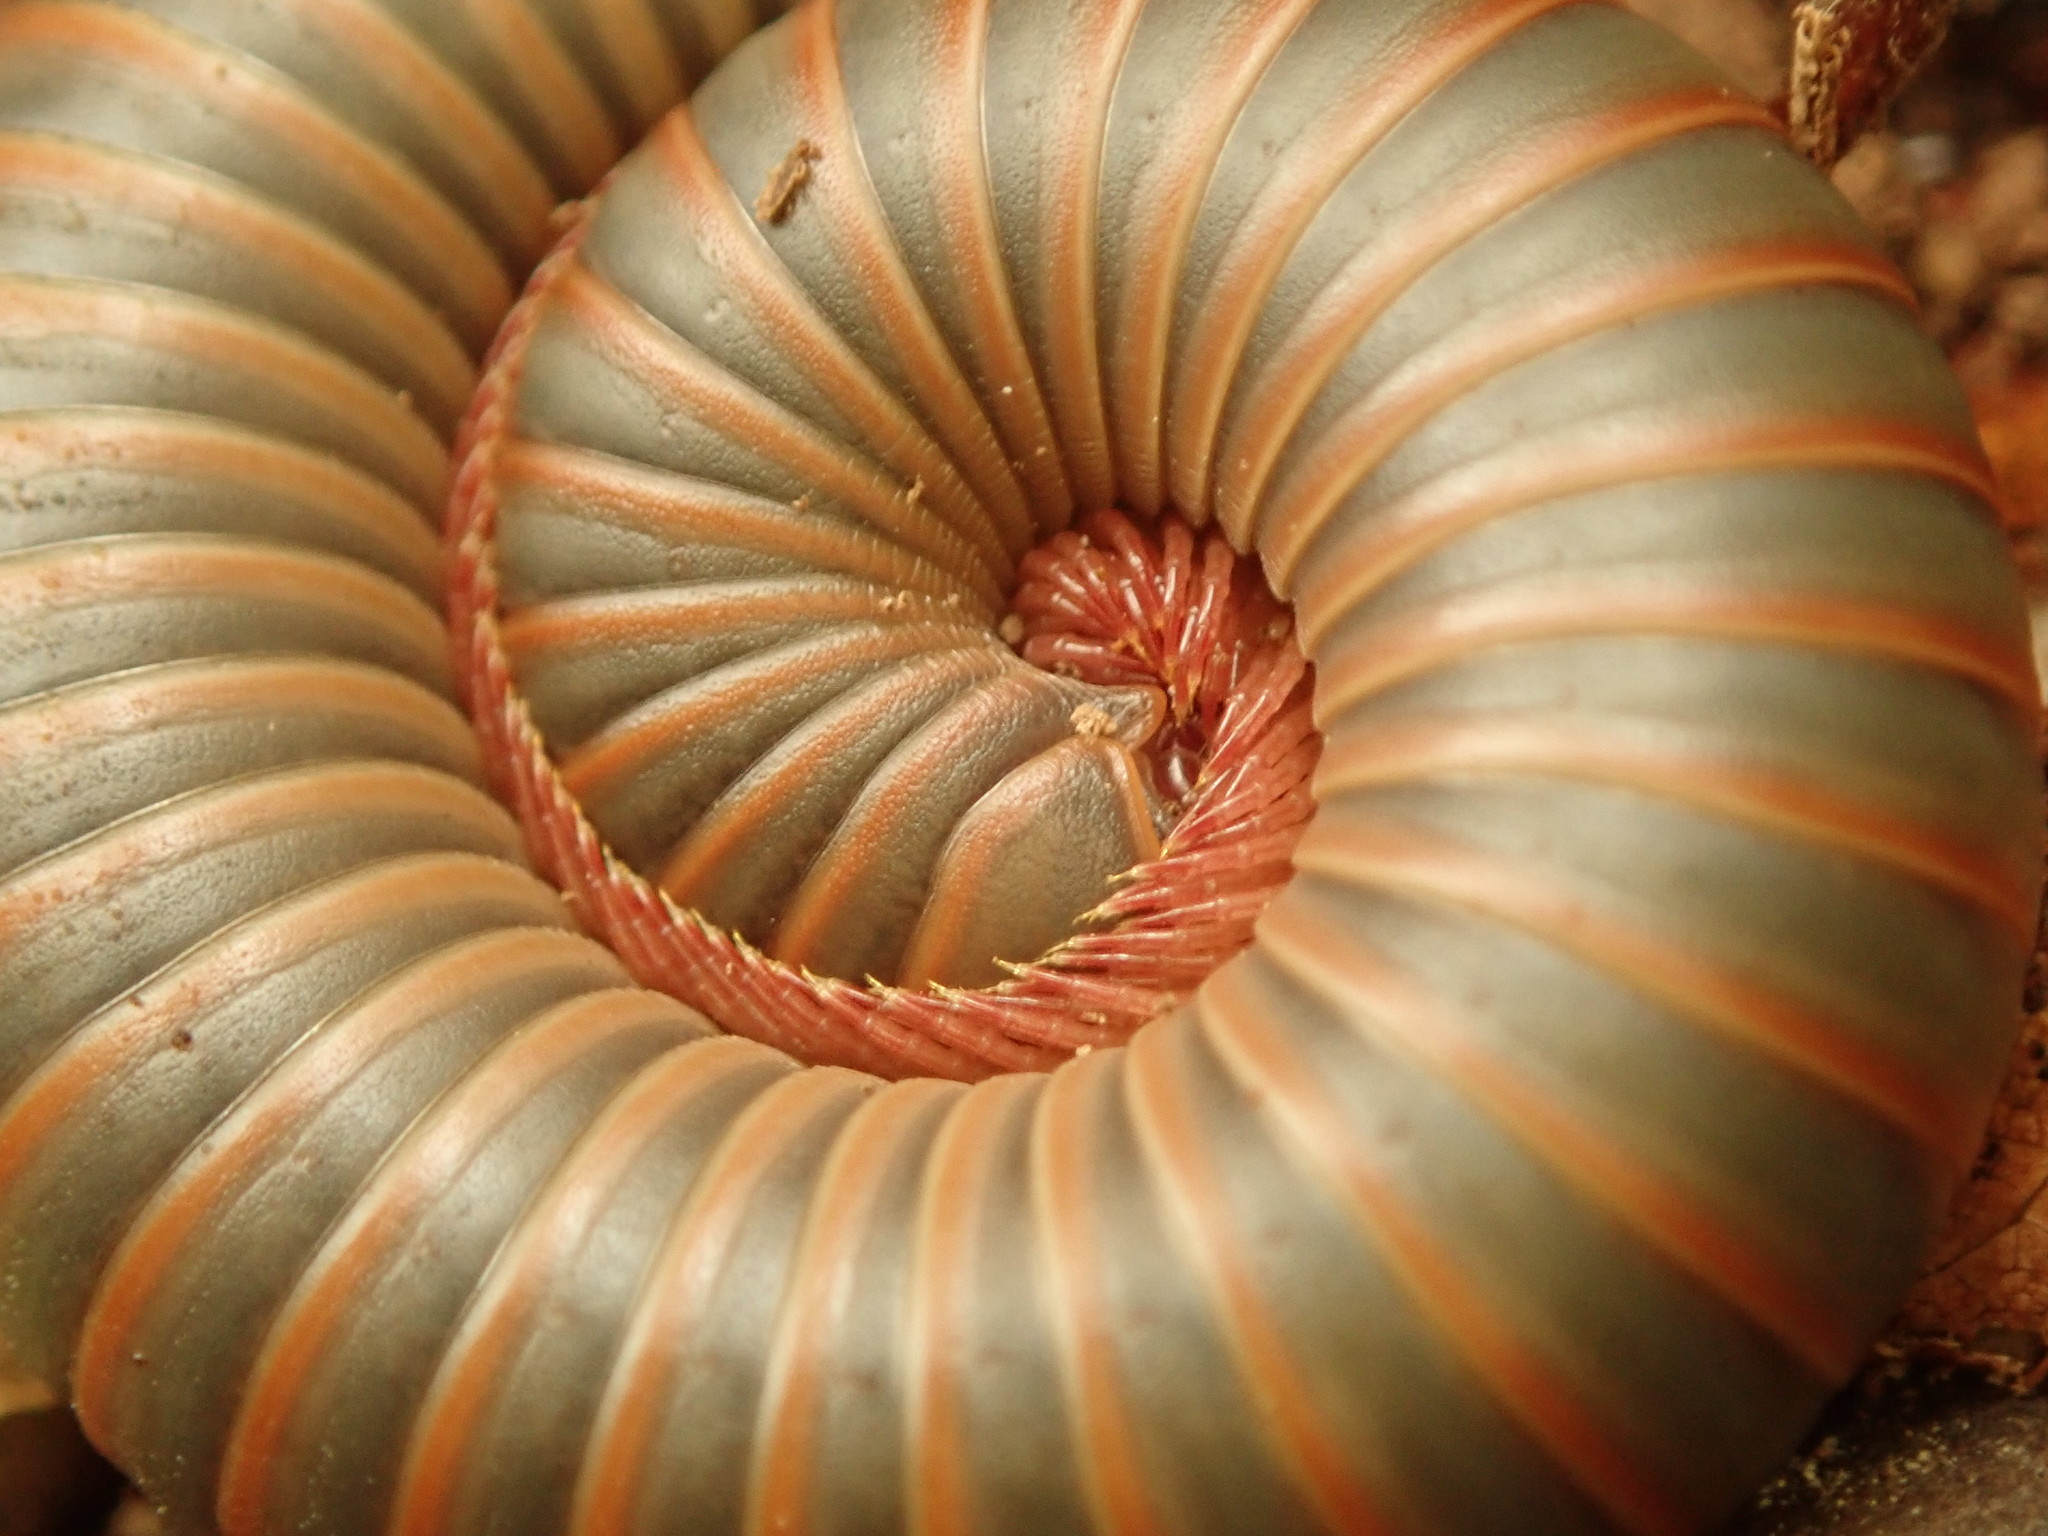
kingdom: Animalia
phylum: Arthropoda
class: Diplopoda
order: Spirobolida
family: Spirobolidae
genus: Narceus
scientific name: Narceus
